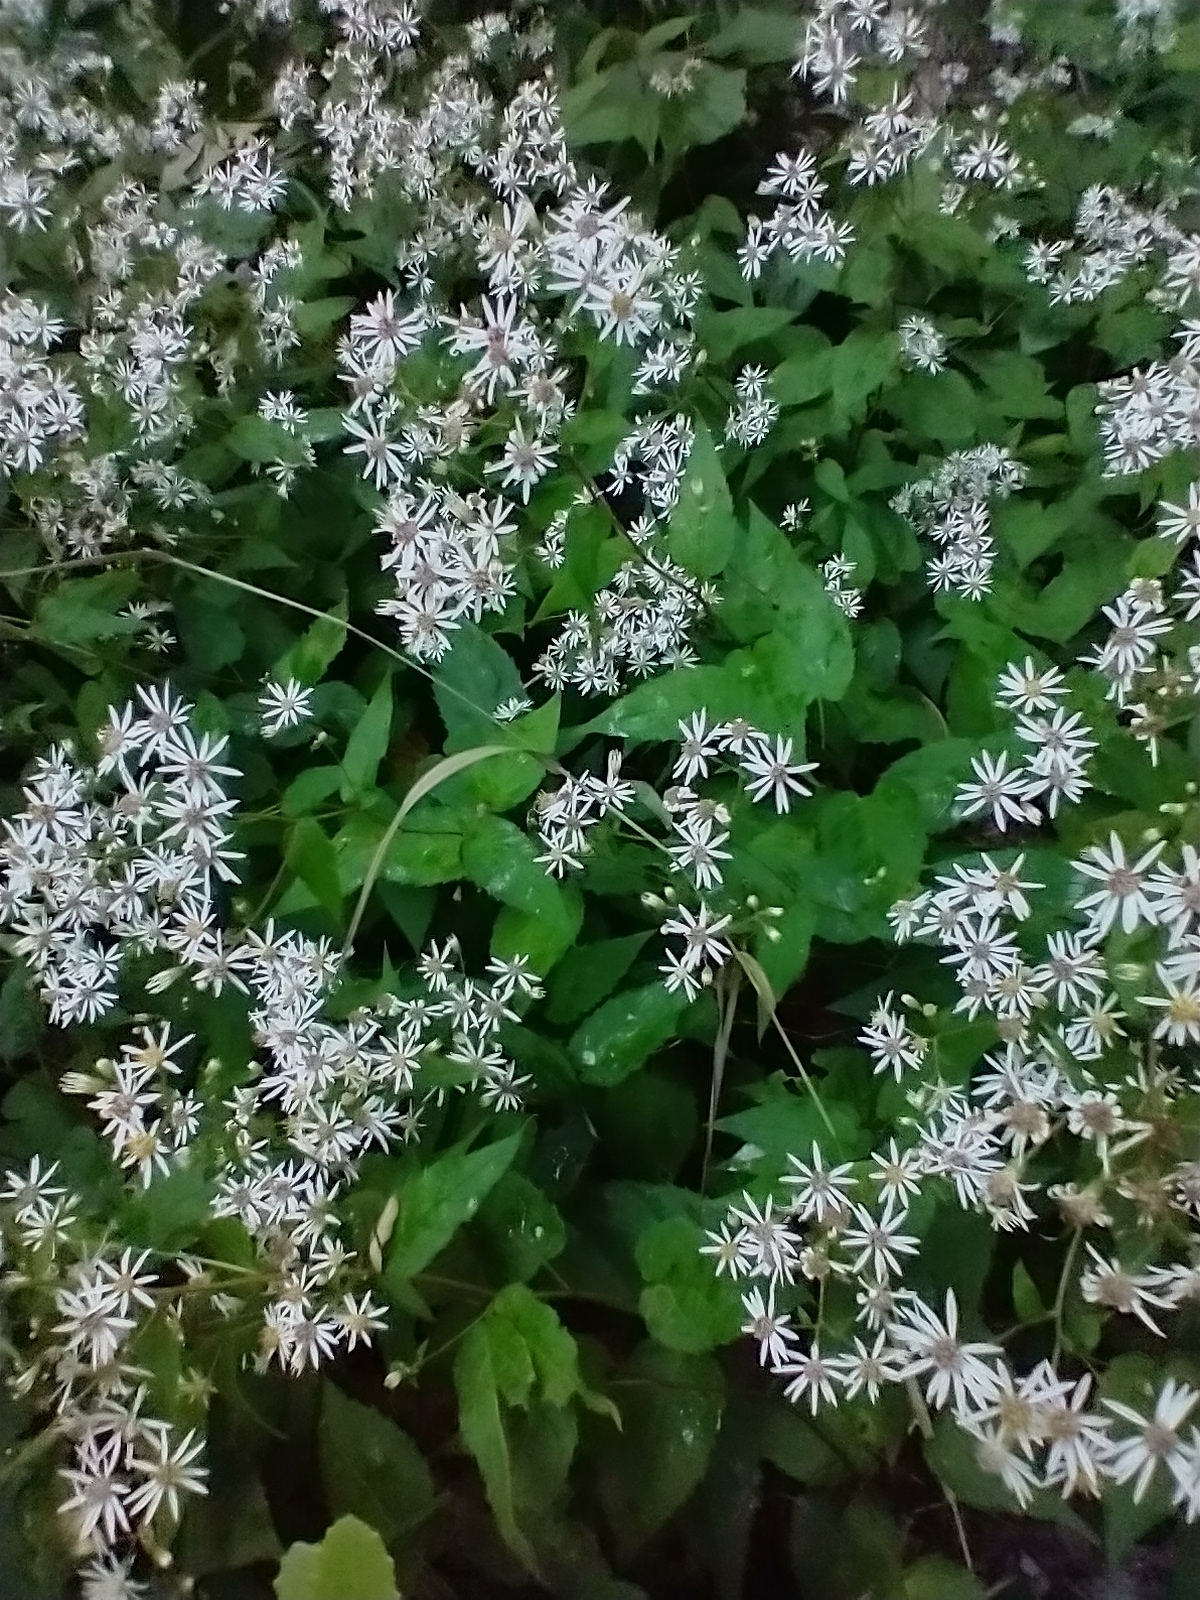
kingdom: Plantae
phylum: Tracheophyta
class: Magnoliopsida
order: Asterales
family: Asteraceae
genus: Eurybia
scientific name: Eurybia divaricata
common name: White wood aster
